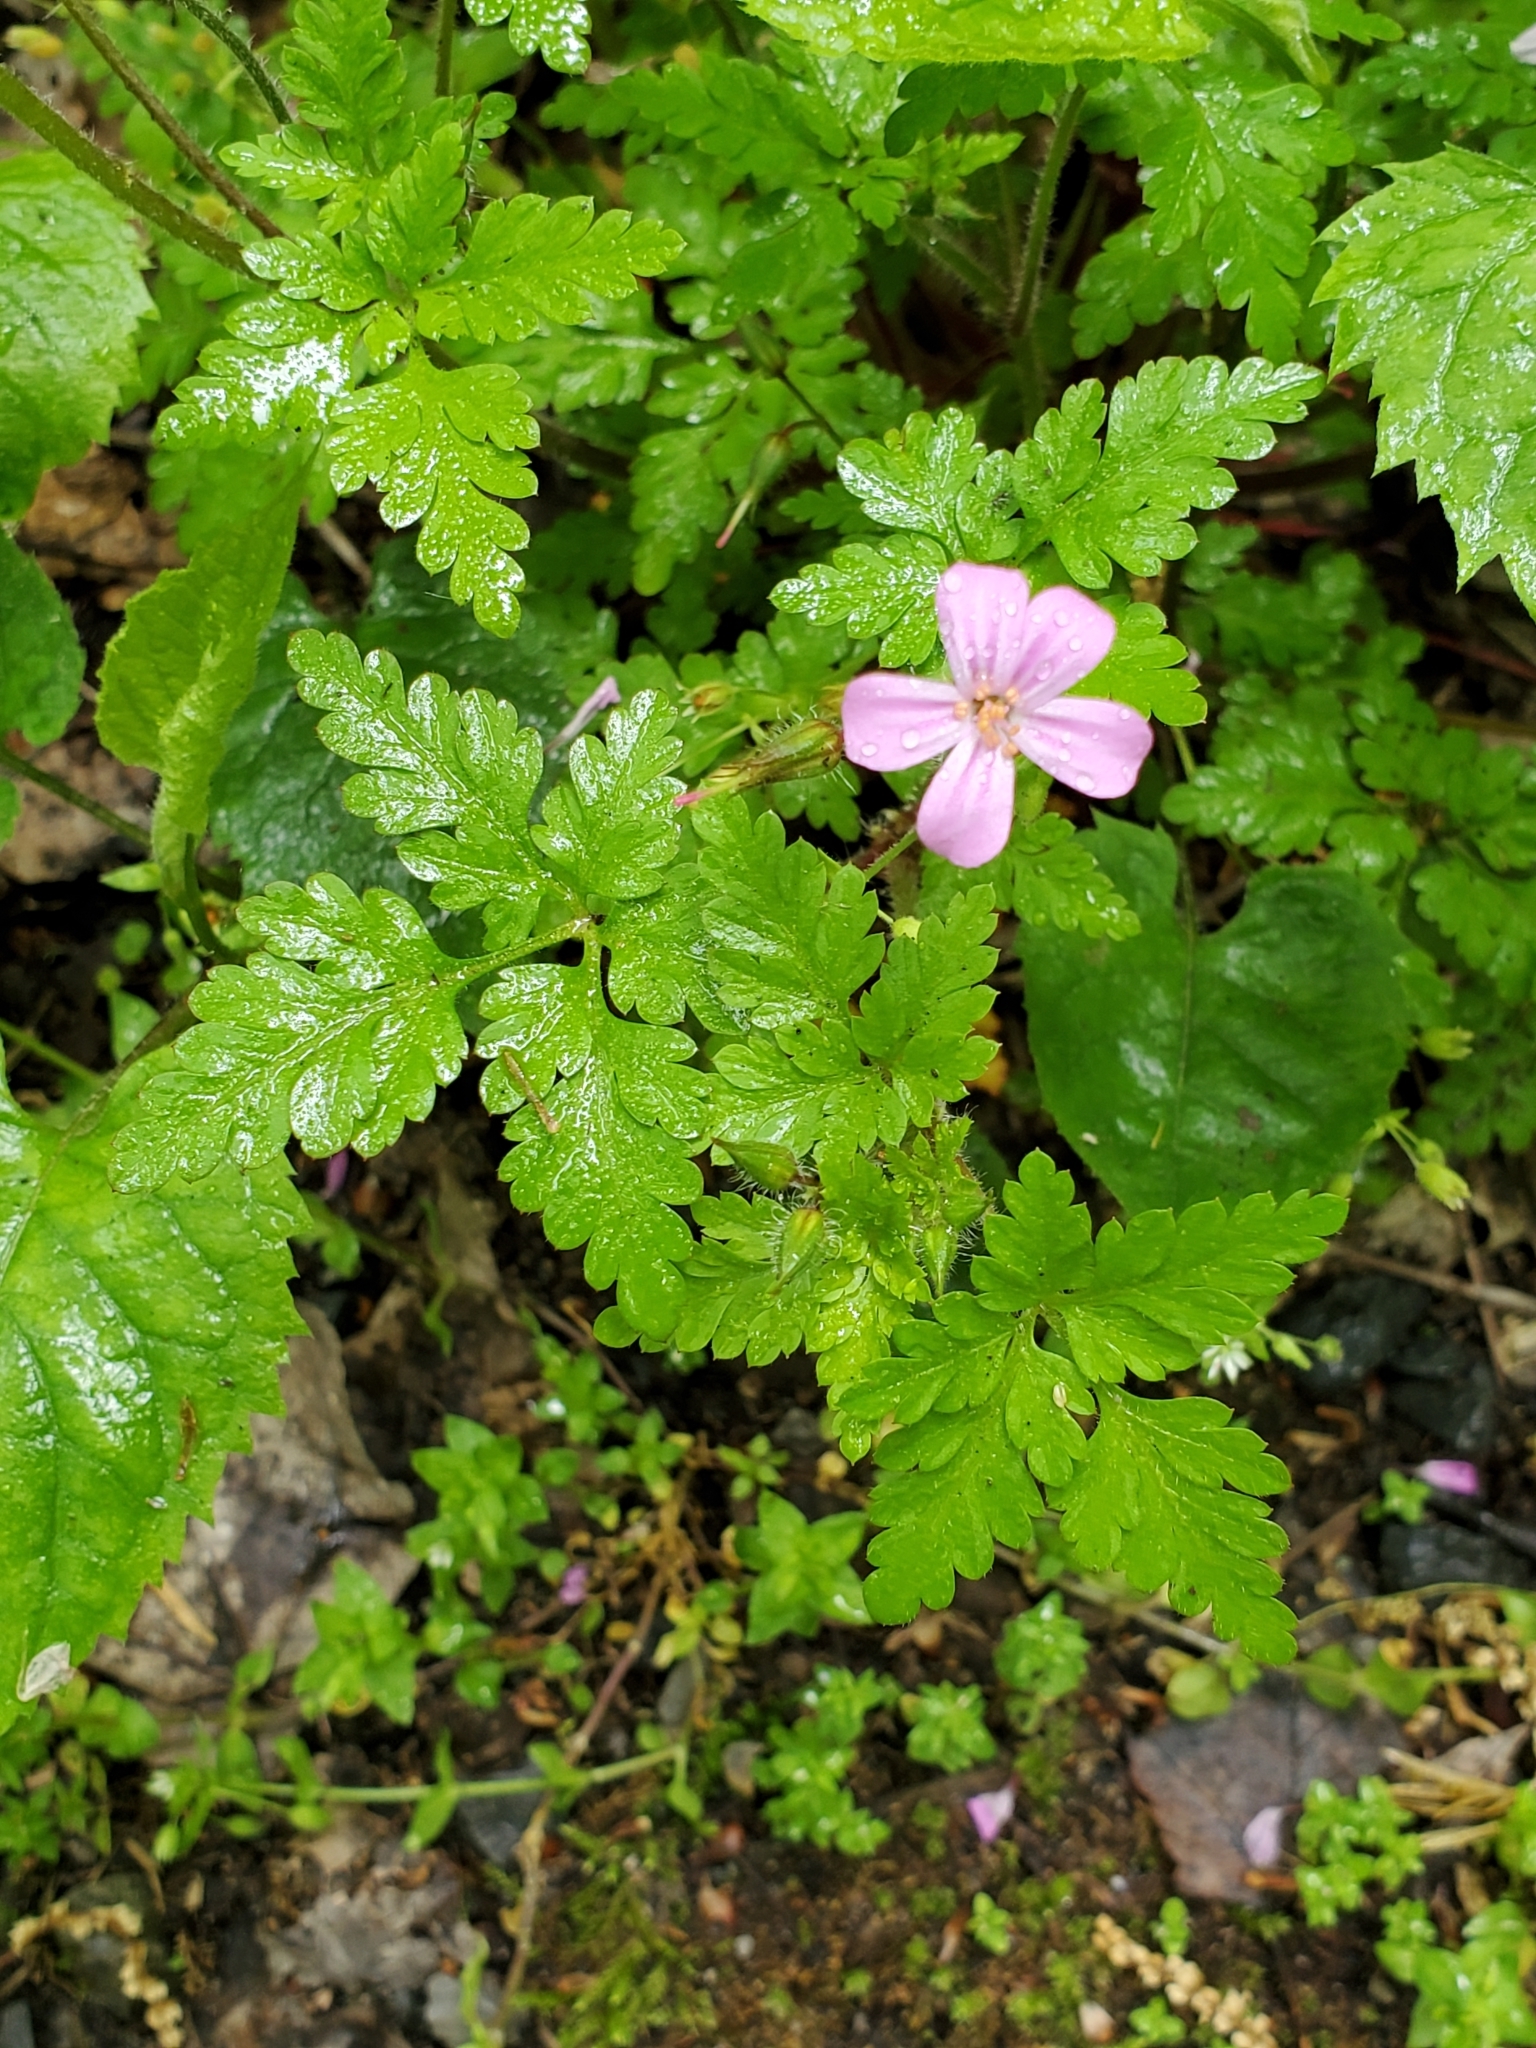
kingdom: Plantae
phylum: Tracheophyta
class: Magnoliopsida
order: Geraniales
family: Geraniaceae
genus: Geranium
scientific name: Geranium robertianum
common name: Herb-robert
